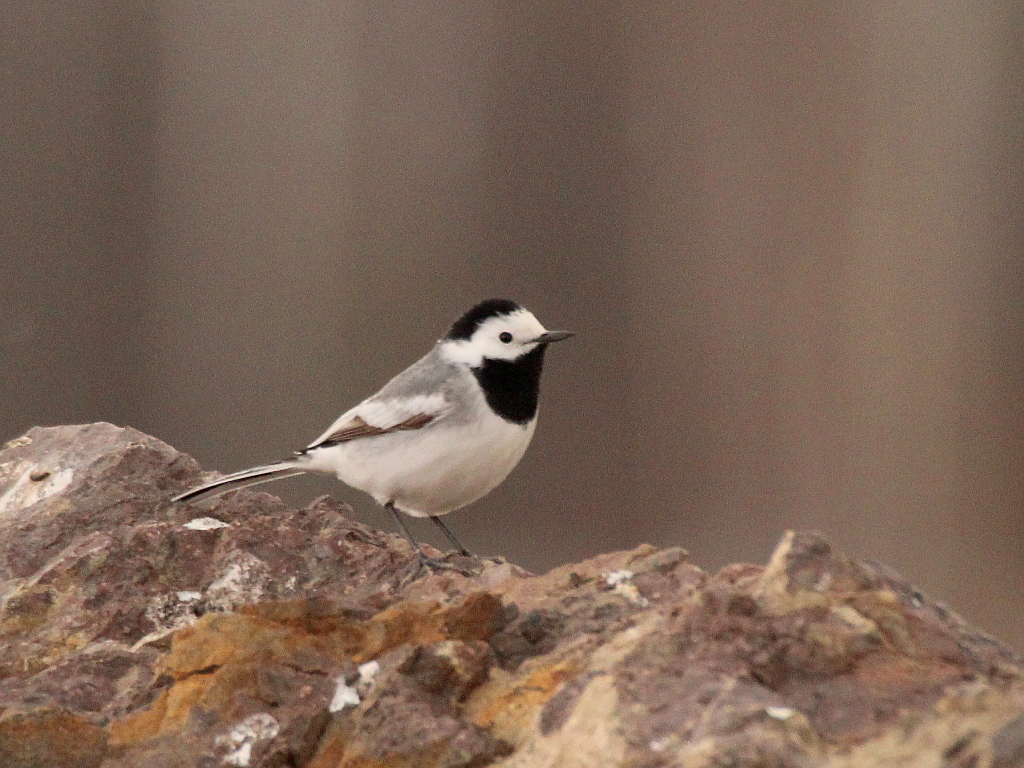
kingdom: Animalia
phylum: Chordata
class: Aves
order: Passeriformes
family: Motacillidae
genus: Motacilla
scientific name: Motacilla alba
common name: White wagtail
